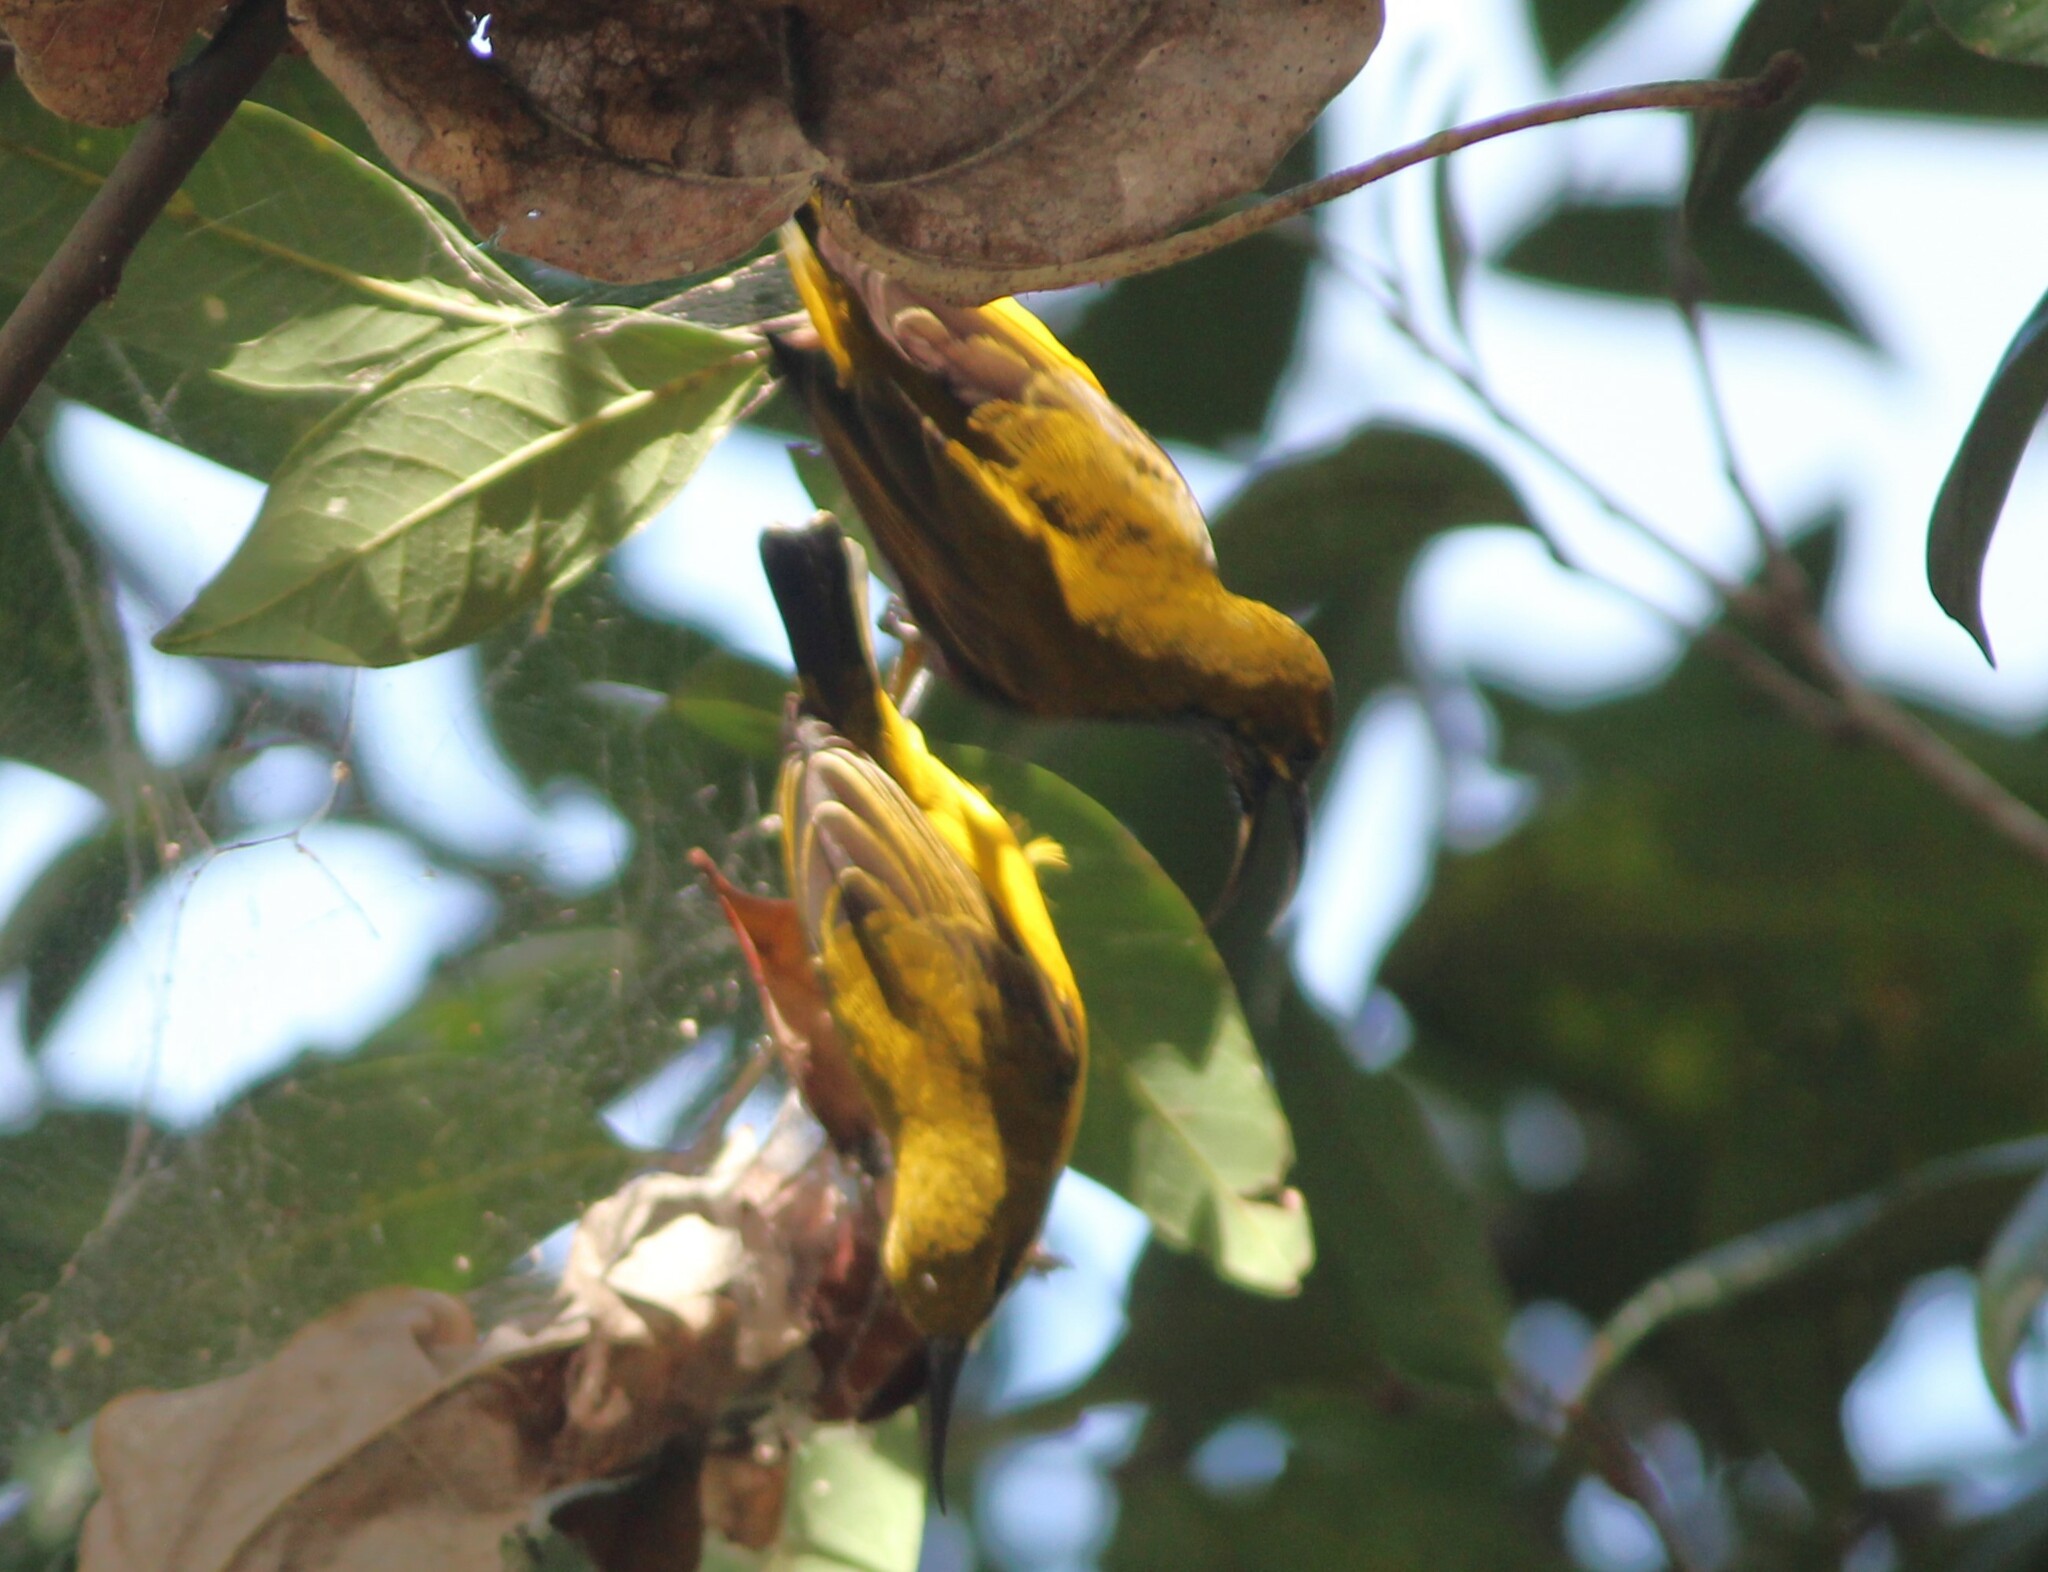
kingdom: Animalia
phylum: Chordata
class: Aves
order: Passeriformes
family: Nectariniidae
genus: Cinnyris
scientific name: Cinnyris
